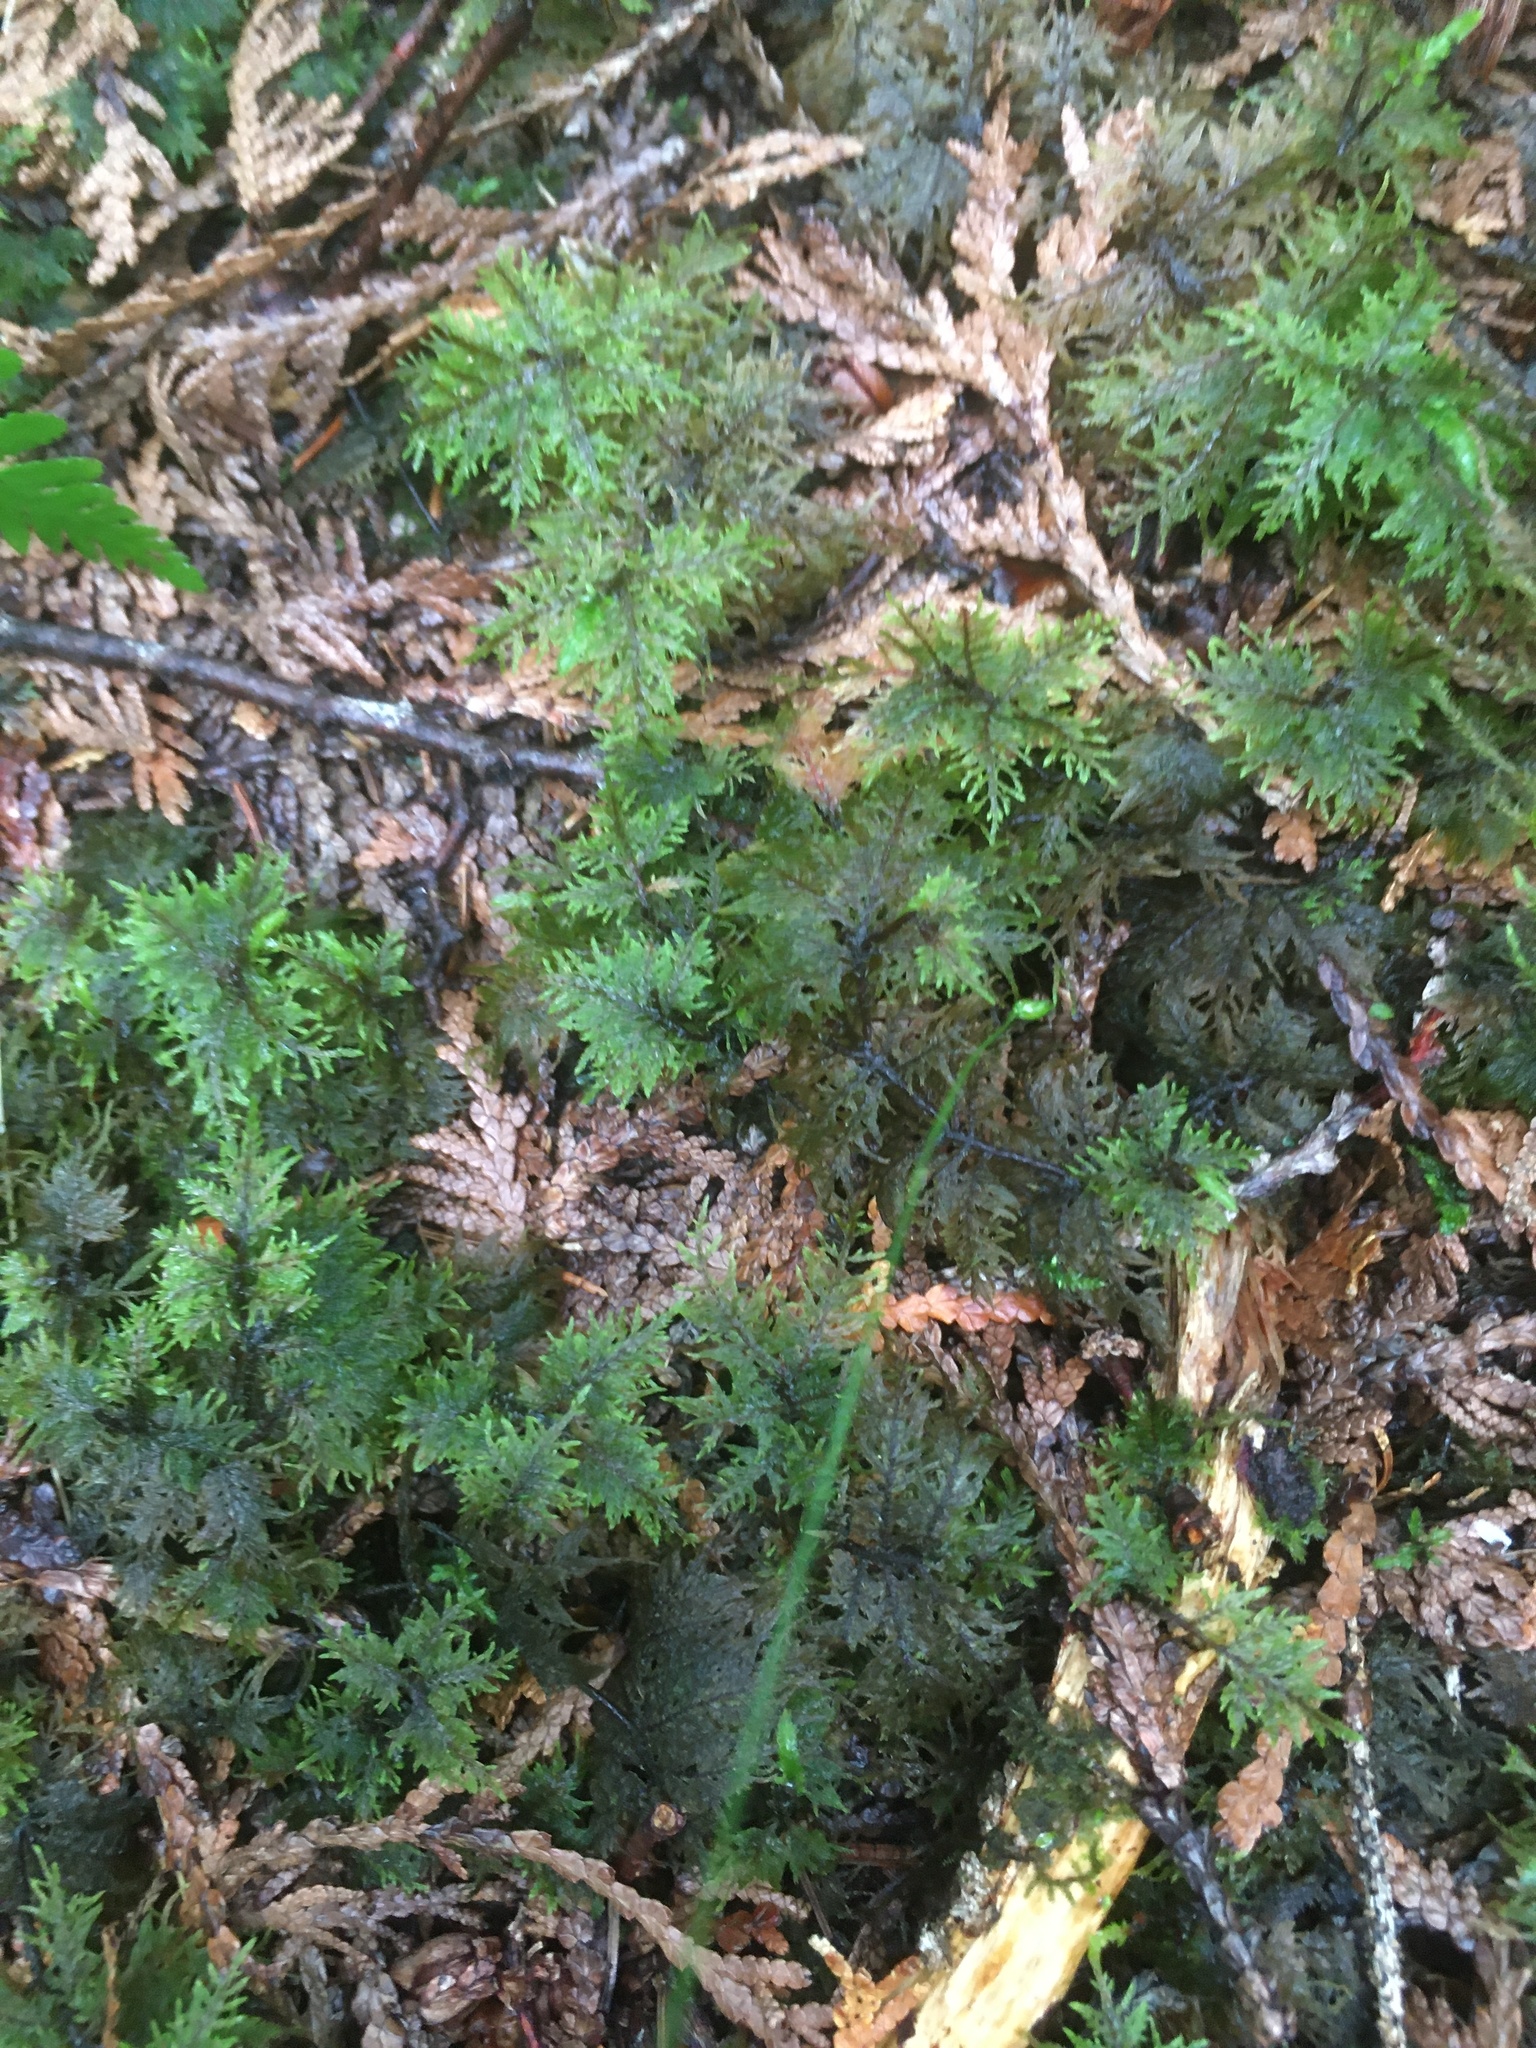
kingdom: Plantae
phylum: Bryophyta
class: Bryopsida
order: Hypnales
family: Hylocomiaceae
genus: Hylocomium
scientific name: Hylocomium splendens
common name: Stairstep moss
